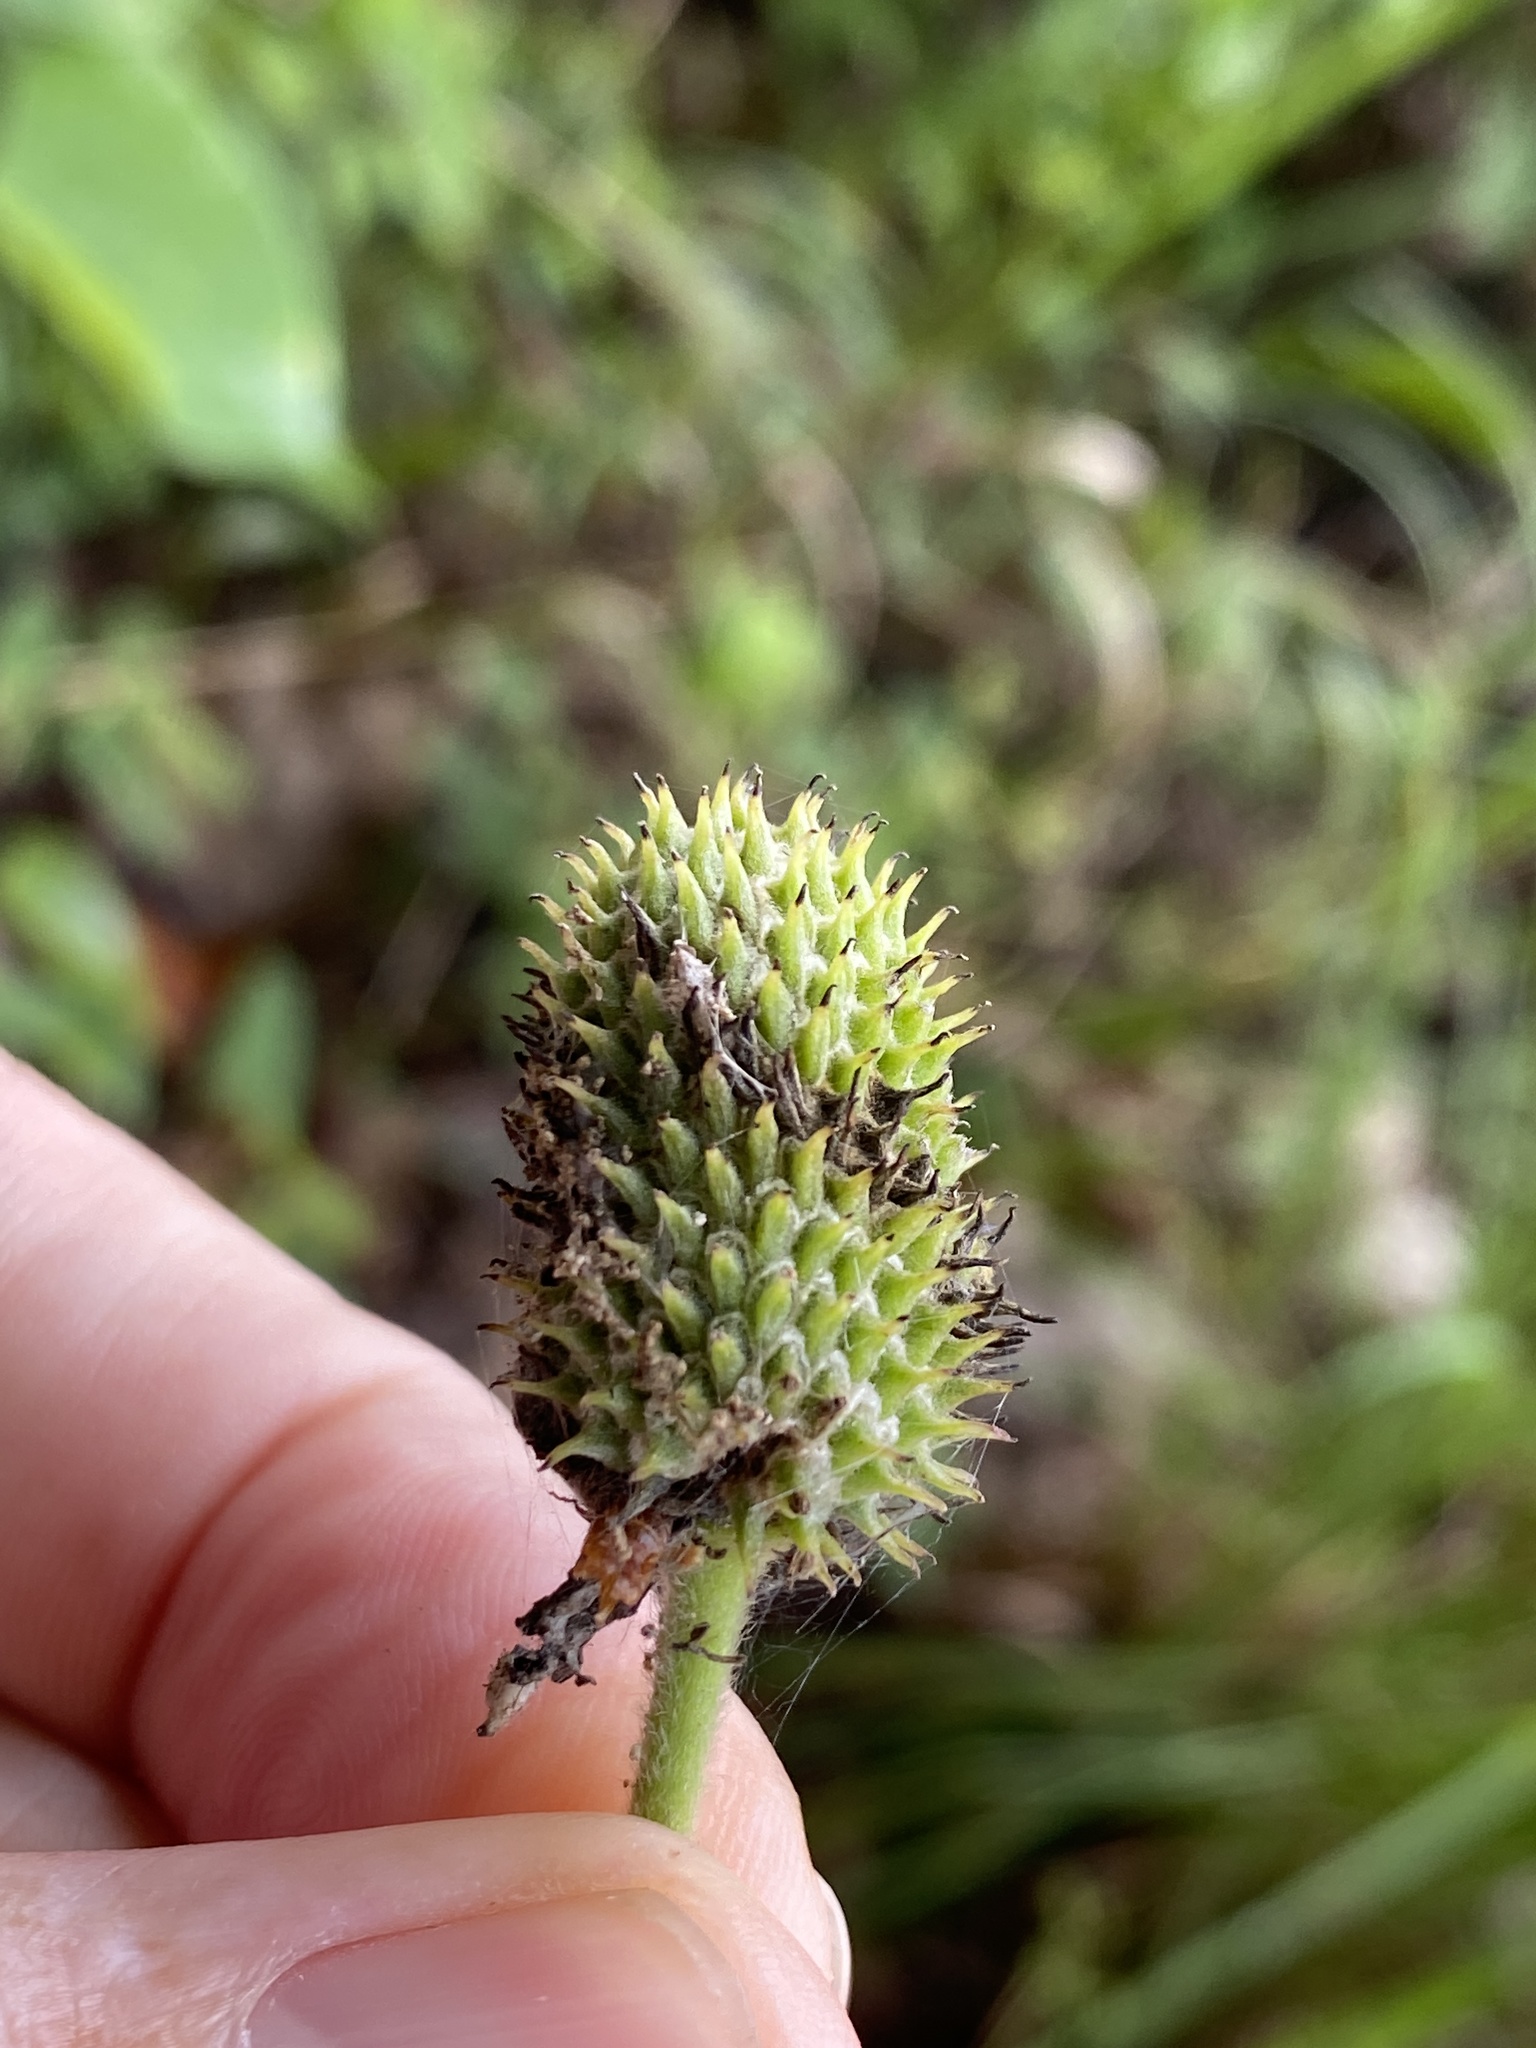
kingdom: Plantae
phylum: Tracheophyta
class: Magnoliopsida
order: Ranunculales
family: Ranunculaceae
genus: Anemone
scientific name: Anemone virginiana
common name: Tall anemone
